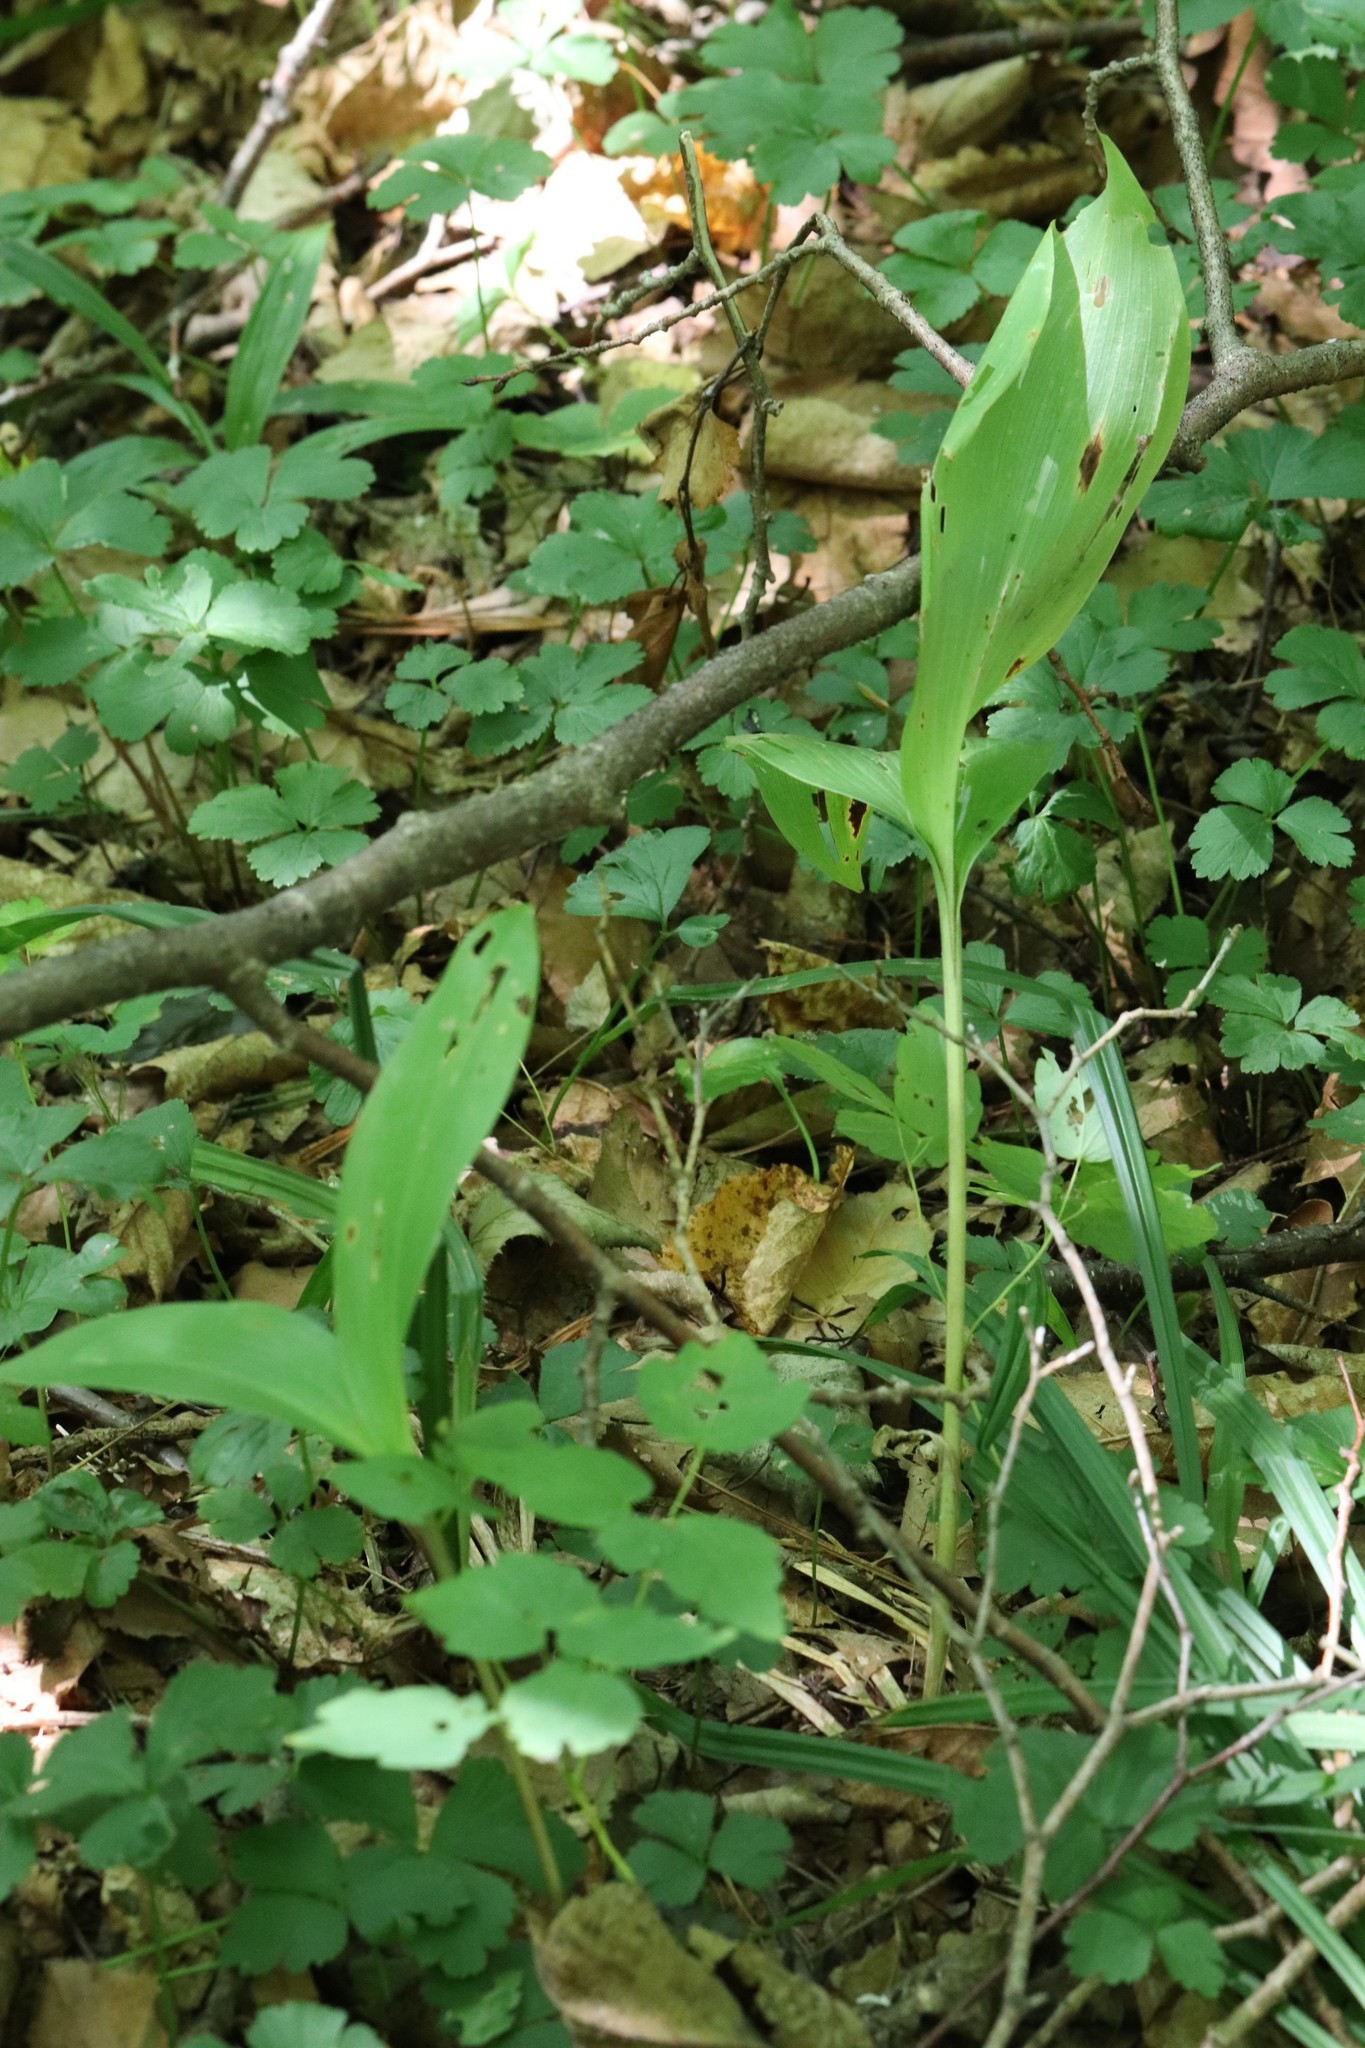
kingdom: Plantae
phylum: Tracheophyta
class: Liliopsida
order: Asparagales
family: Asparagaceae
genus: Convallaria
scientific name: Convallaria keiskei
